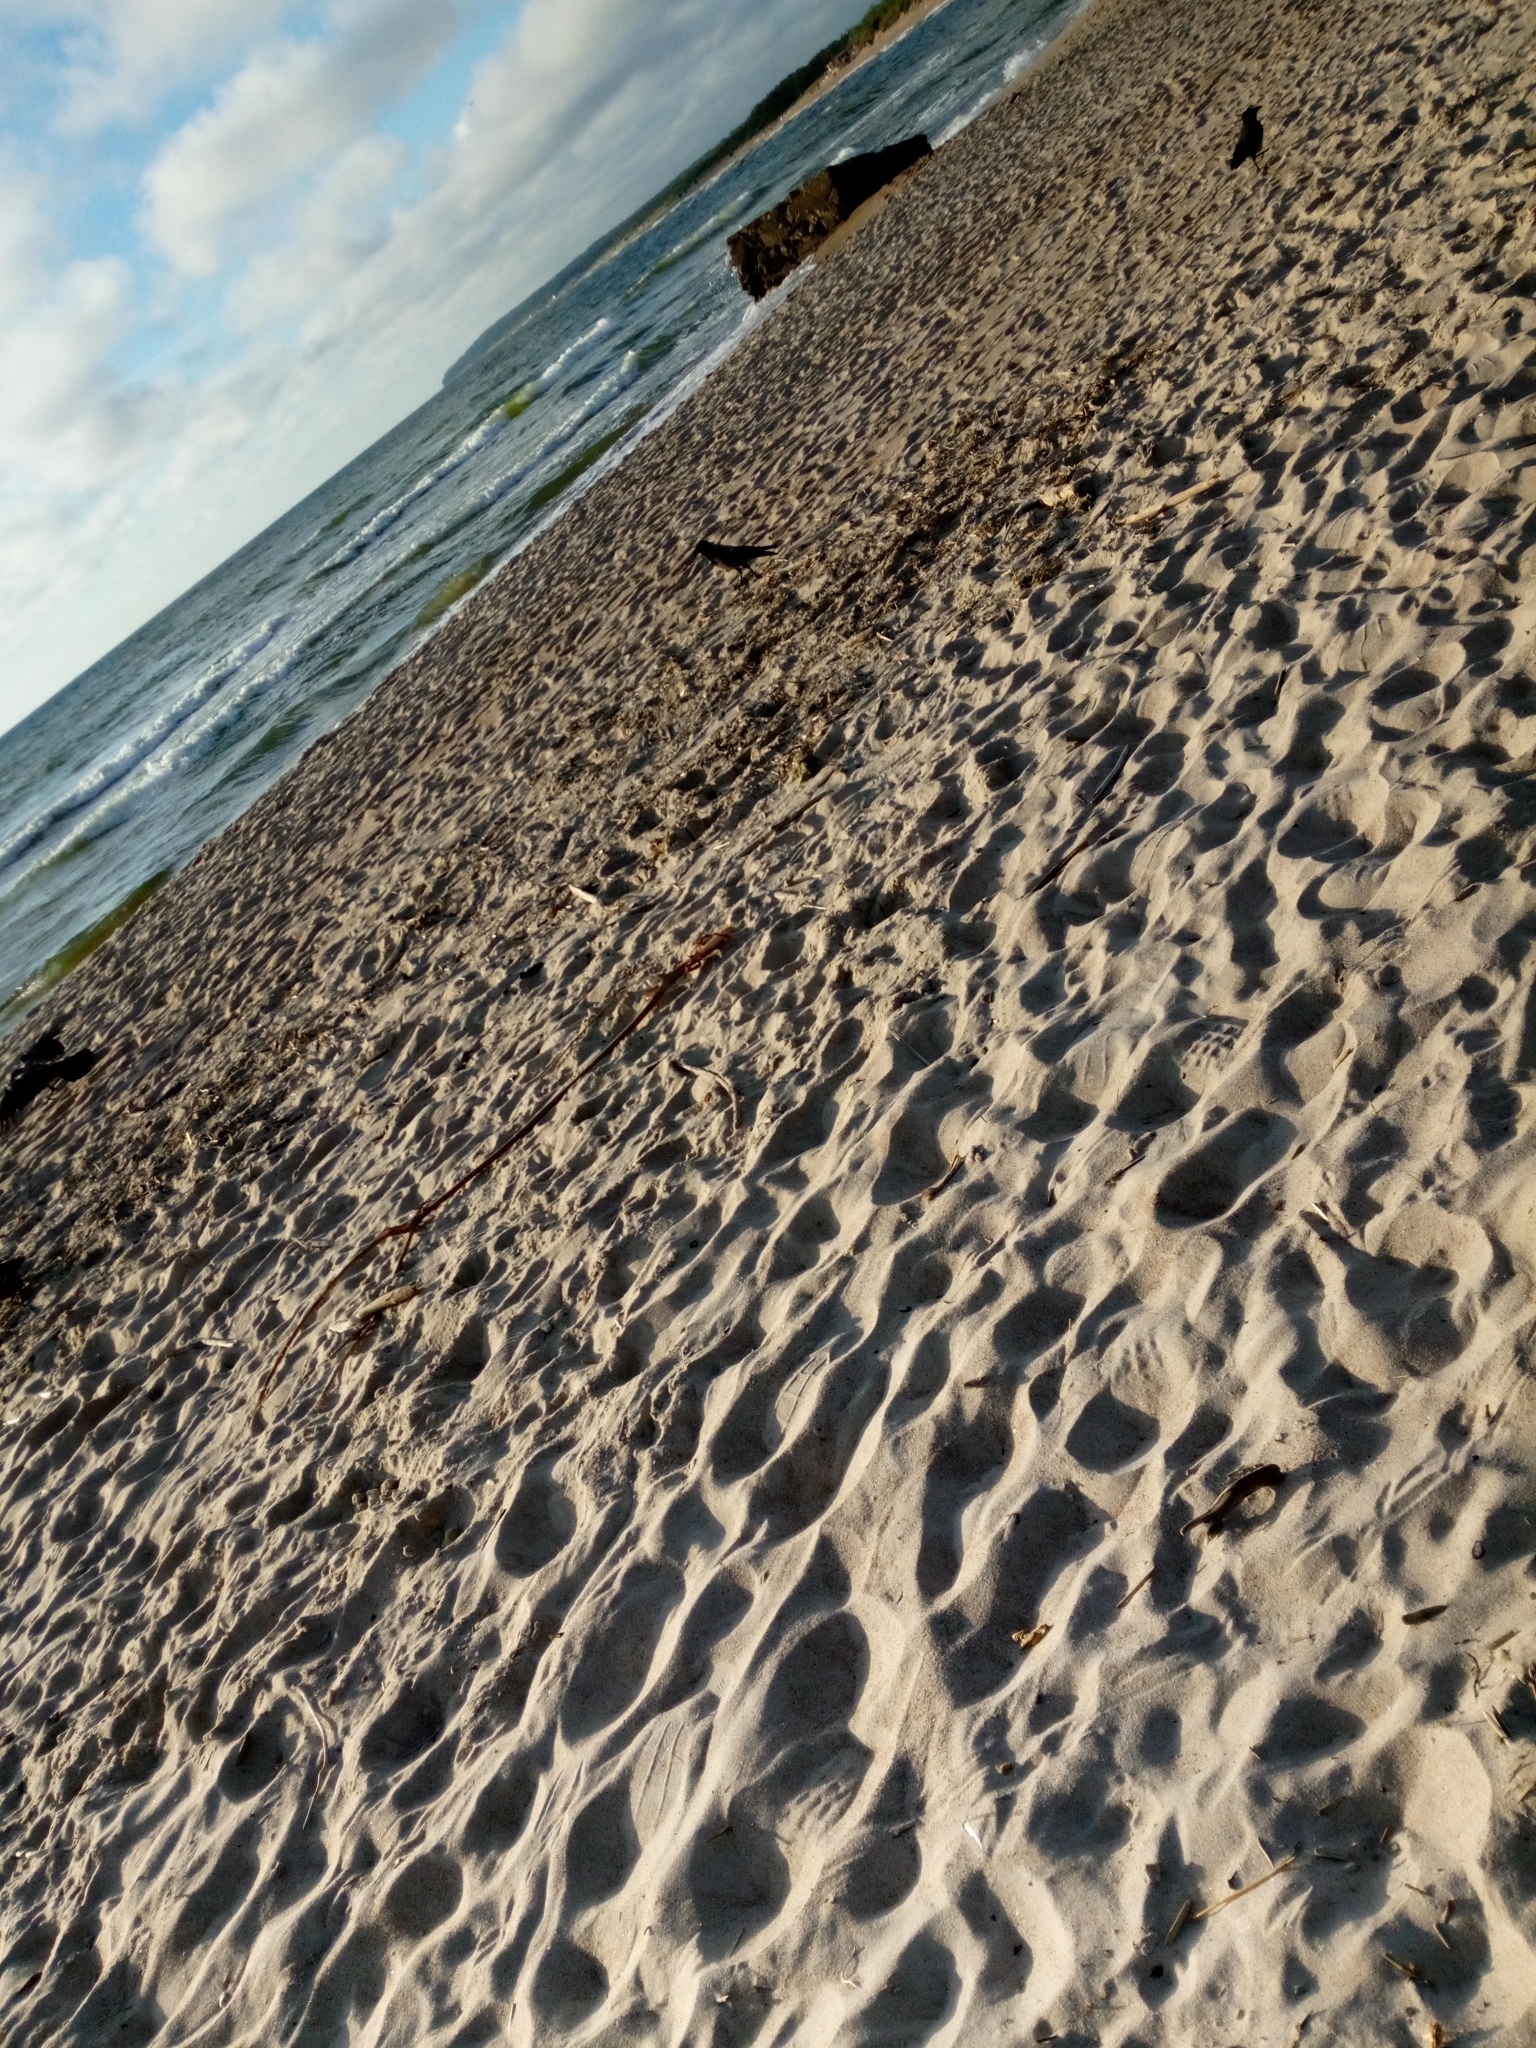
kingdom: Animalia
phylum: Chordata
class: Aves
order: Passeriformes
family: Corvidae
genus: Corvus
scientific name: Corvus cornix
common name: Hooded crow
